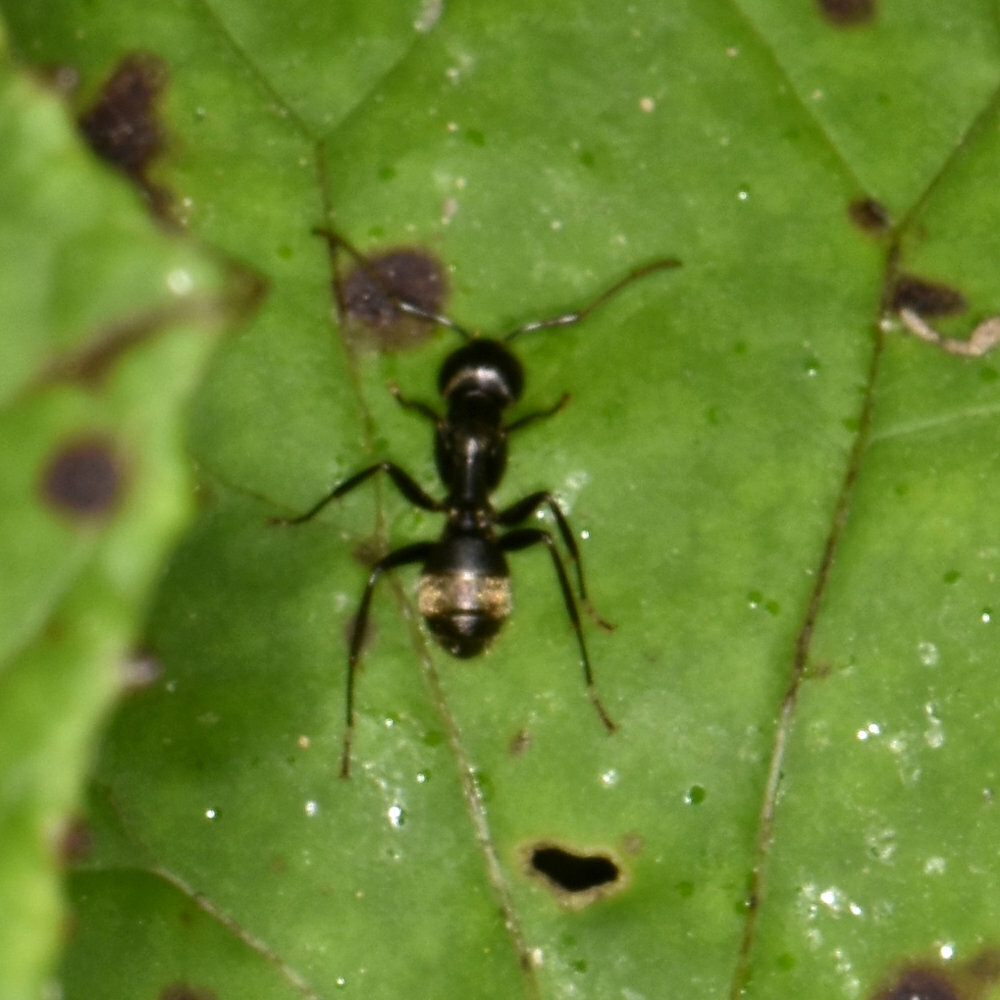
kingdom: Animalia
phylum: Arthropoda
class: Insecta
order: Hymenoptera
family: Formicidae
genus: Camponotus
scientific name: Camponotus pennsylvanicus
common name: Black carpenter ant
